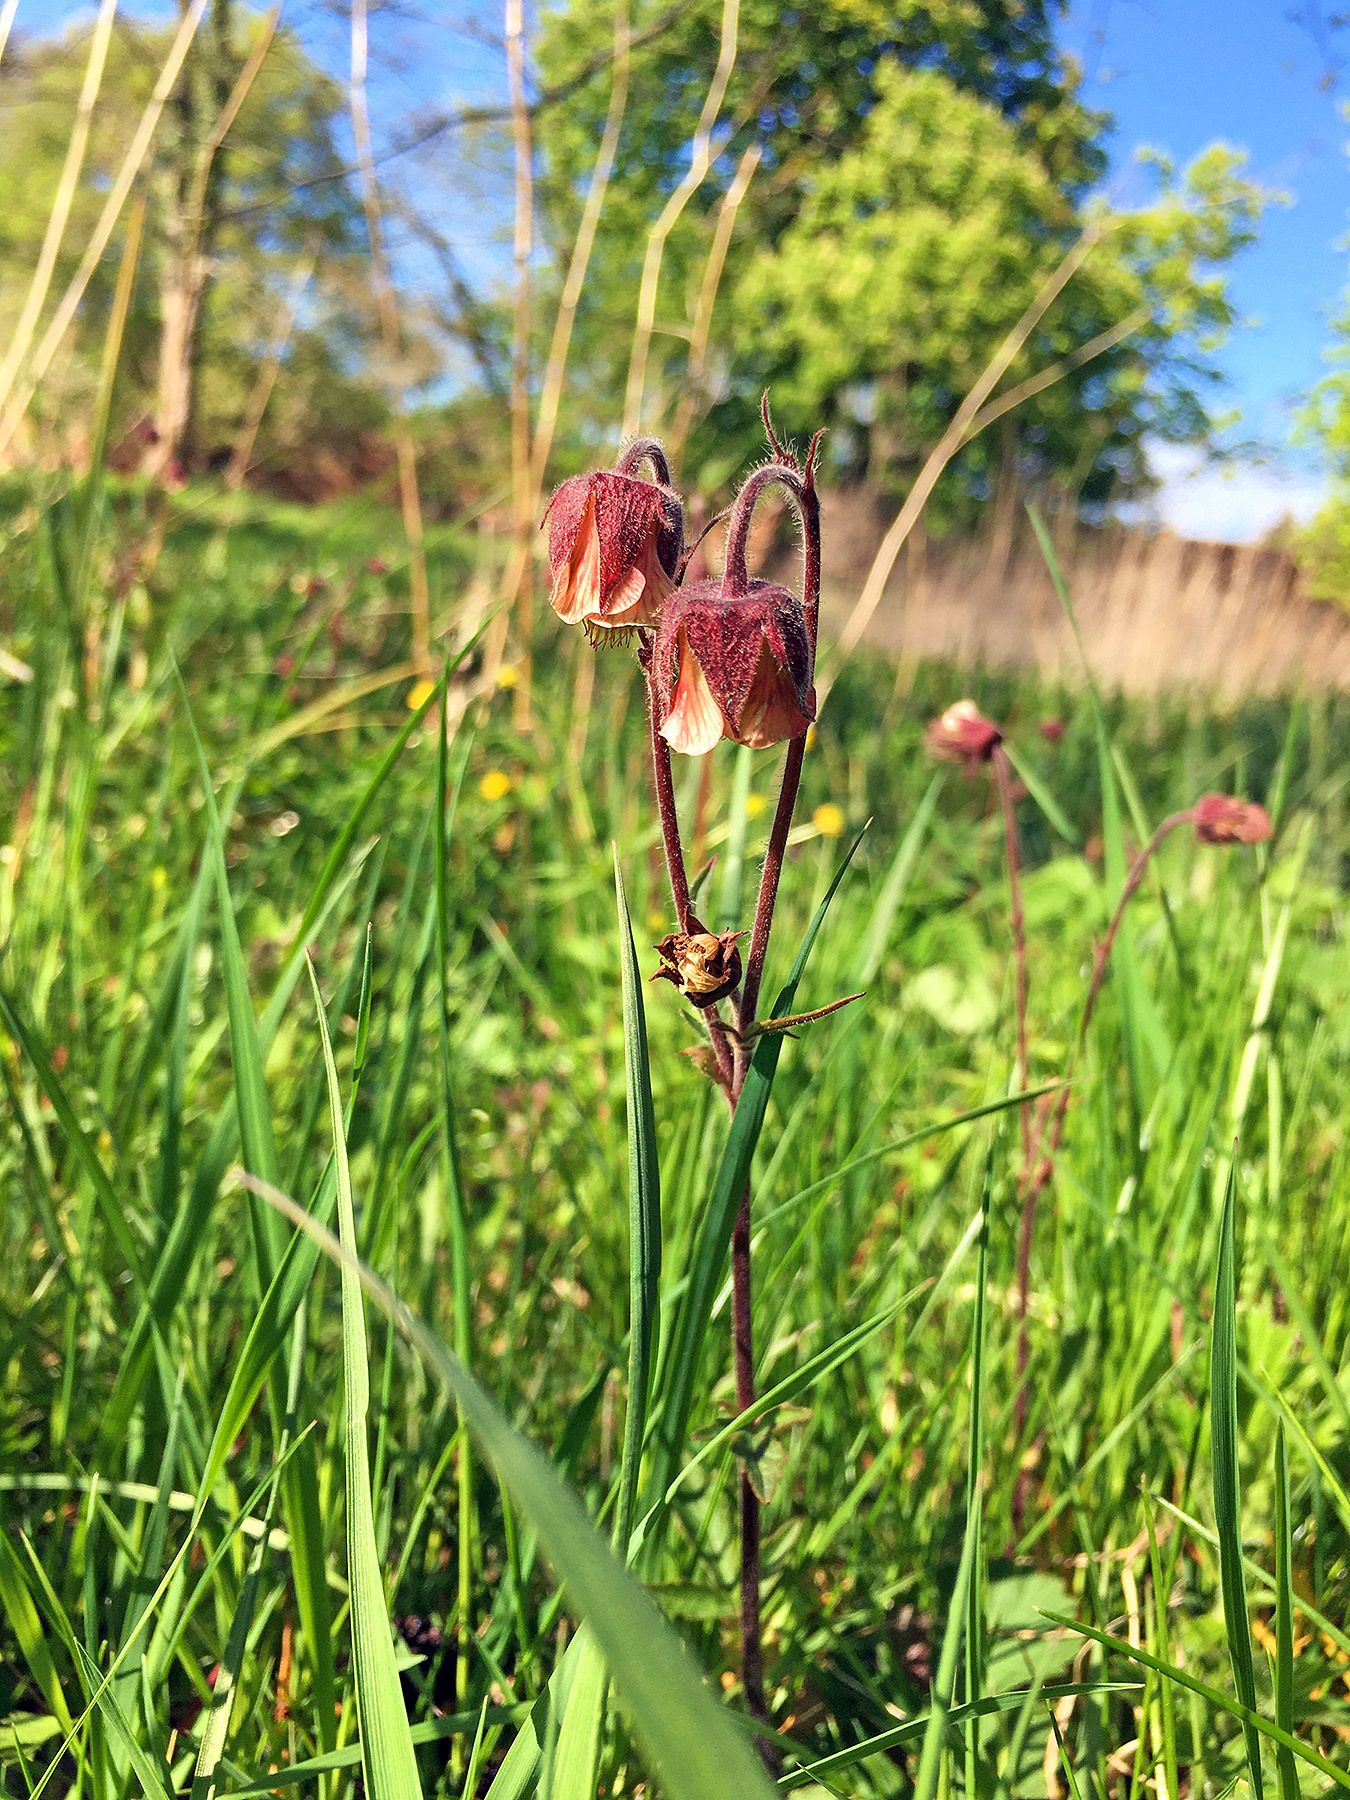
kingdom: Plantae
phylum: Tracheophyta
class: Magnoliopsida
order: Rosales
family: Rosaceae
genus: Geum
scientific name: Geum rivale
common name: Water avens
